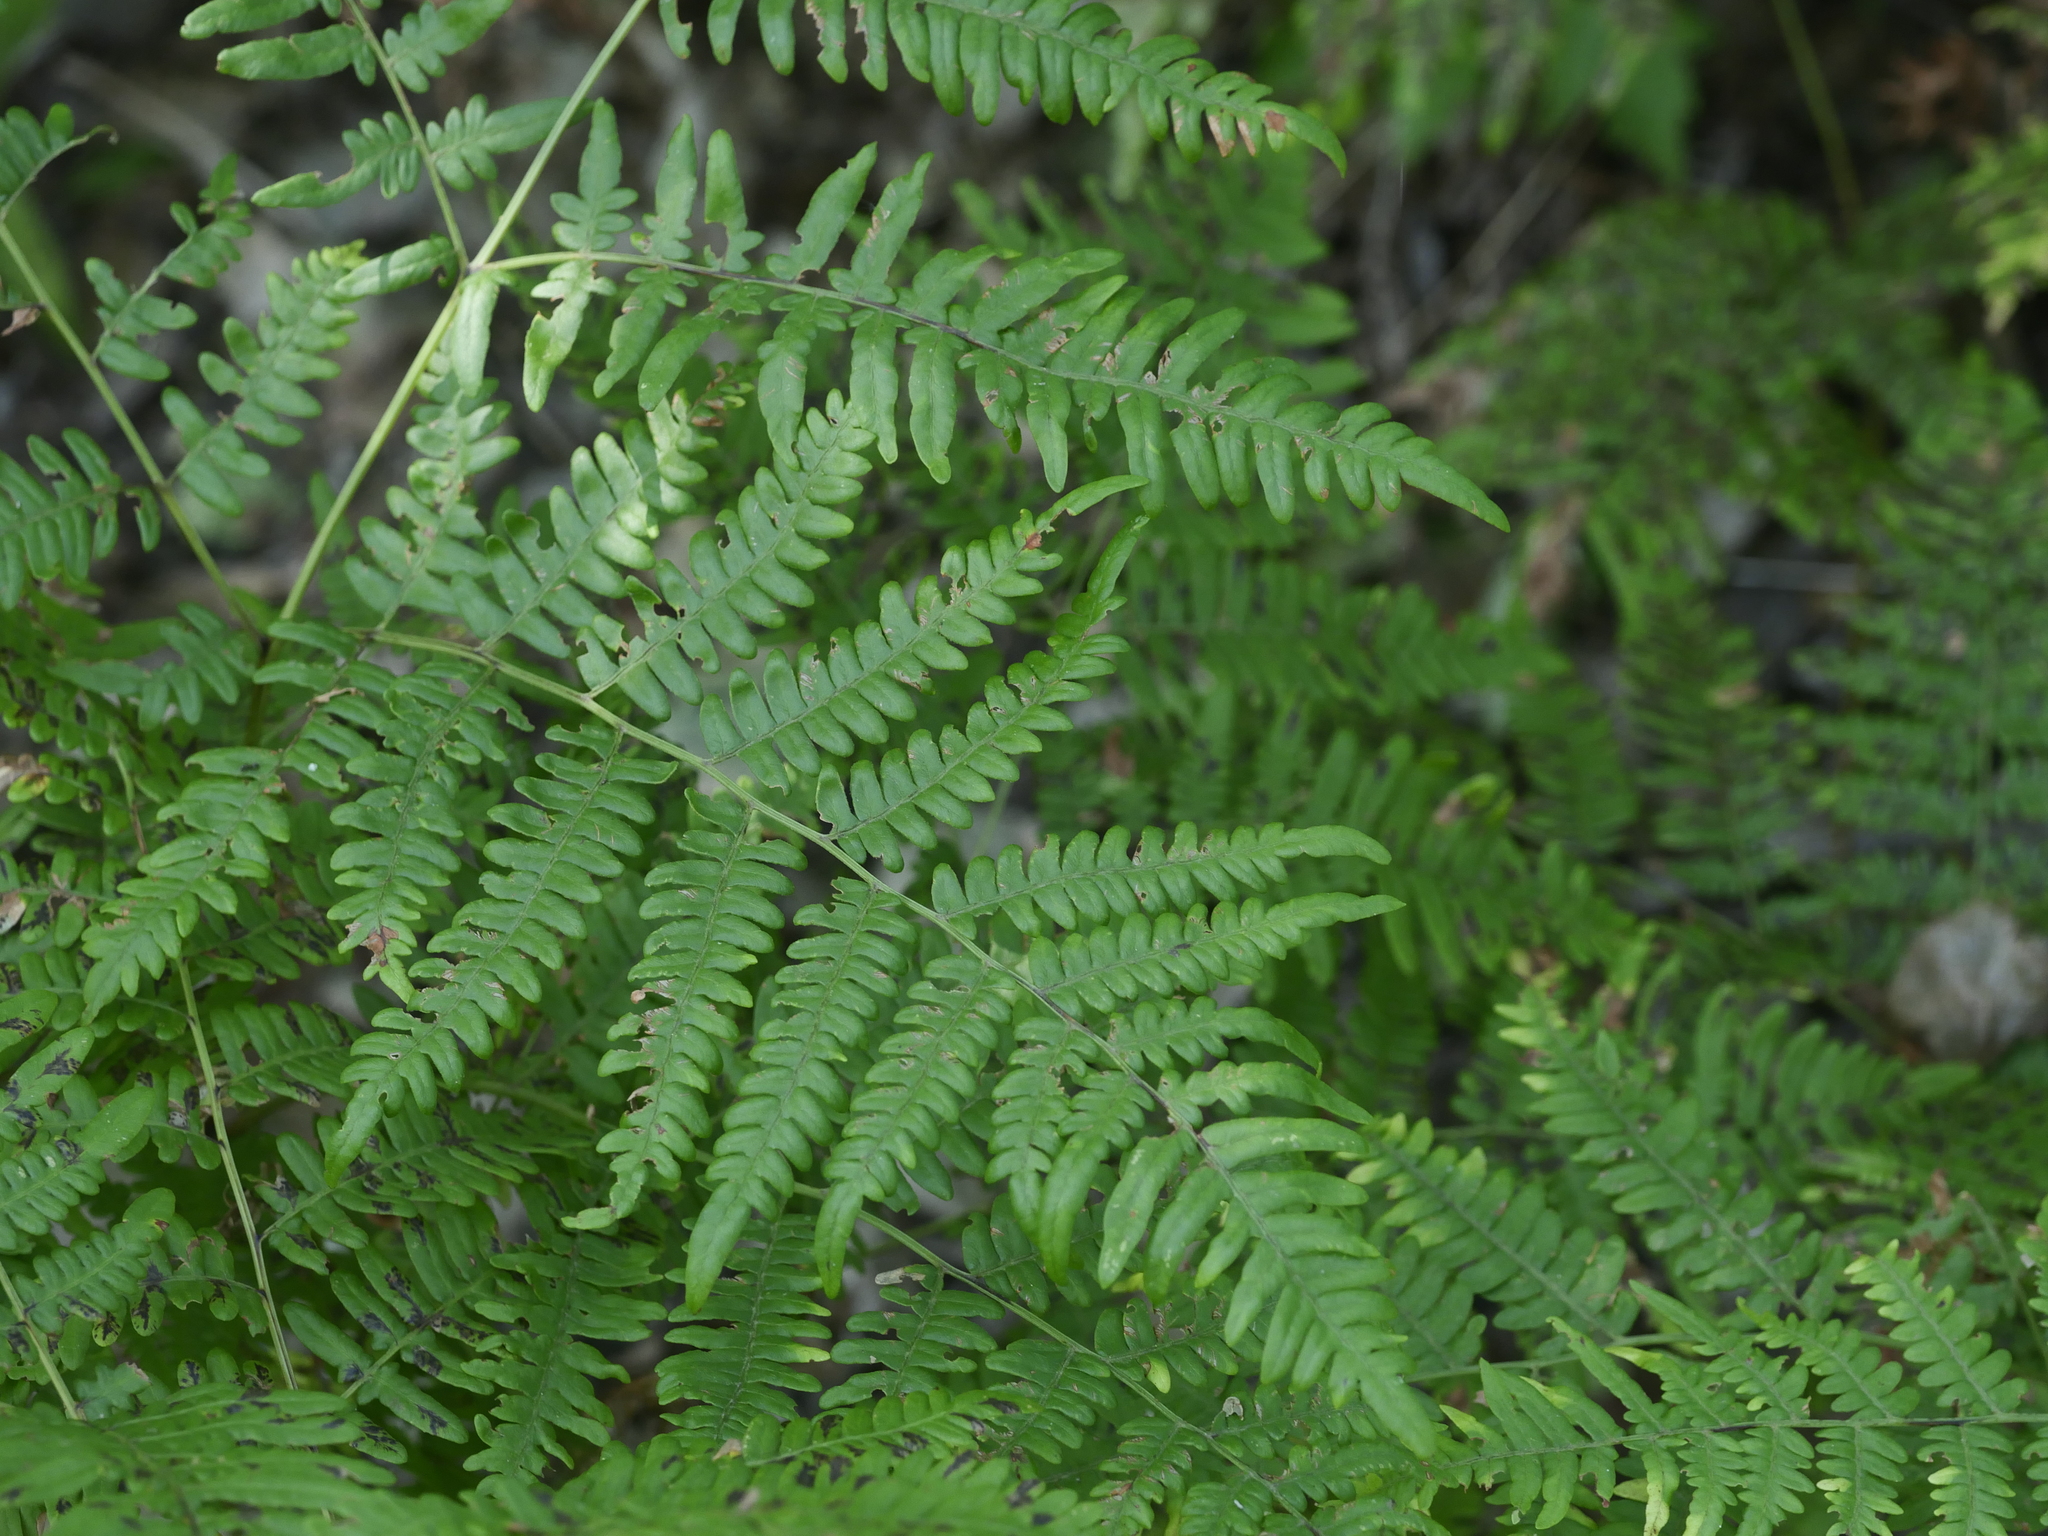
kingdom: Plantae
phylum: Tracheophyta
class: Polypodiopsida
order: Polypodiales
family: Dennstaedtiaceae
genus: Pteridium
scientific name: Pteridium aquilinum
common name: Bracken
